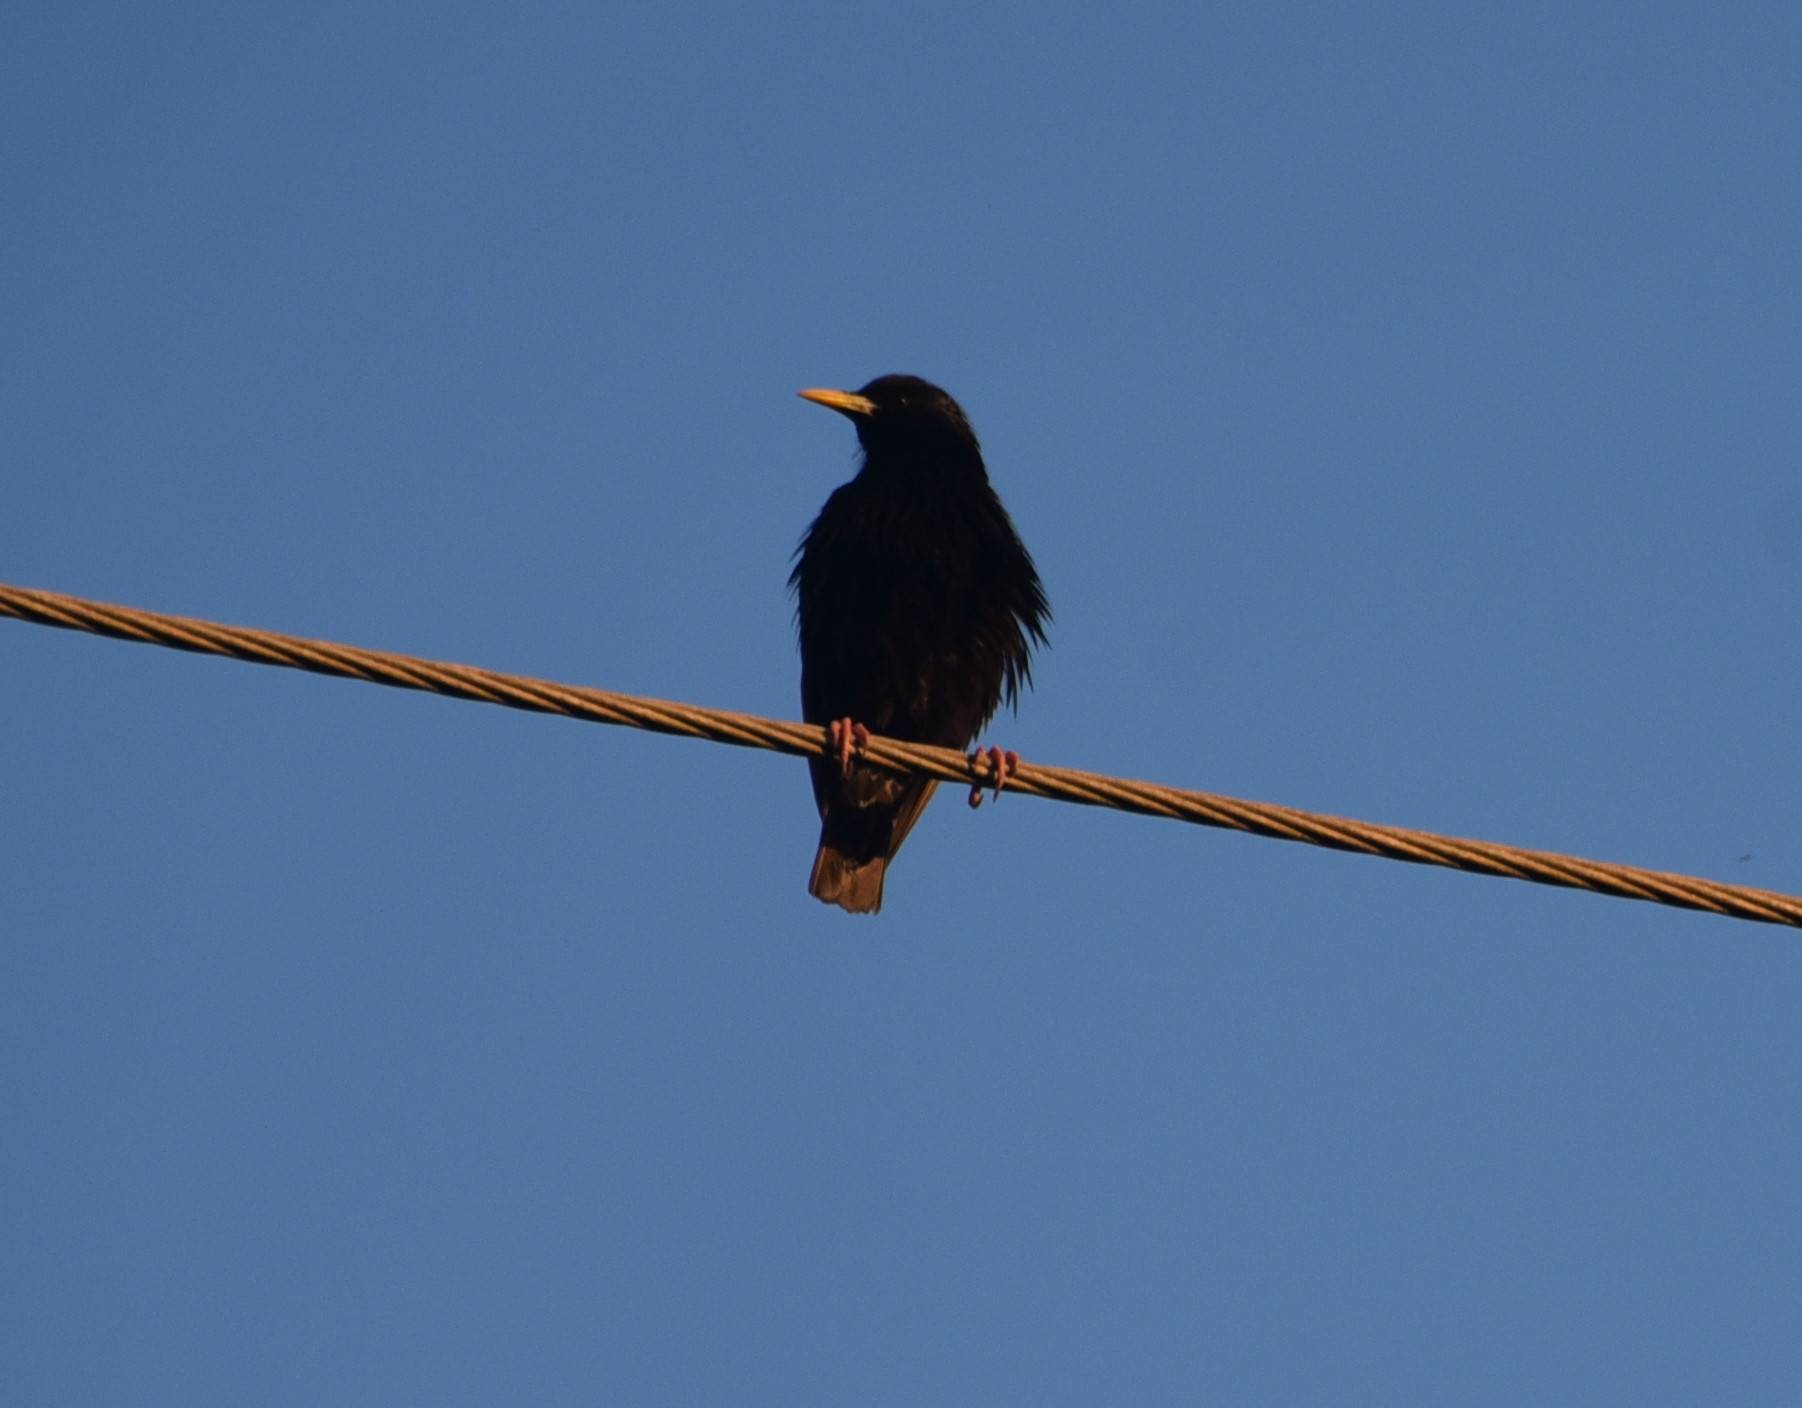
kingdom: Animalia
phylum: Chordata
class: Aves
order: Passeriformes
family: Sturnidae
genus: Sturnus
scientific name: Sturnus vulgaris
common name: Common starling
